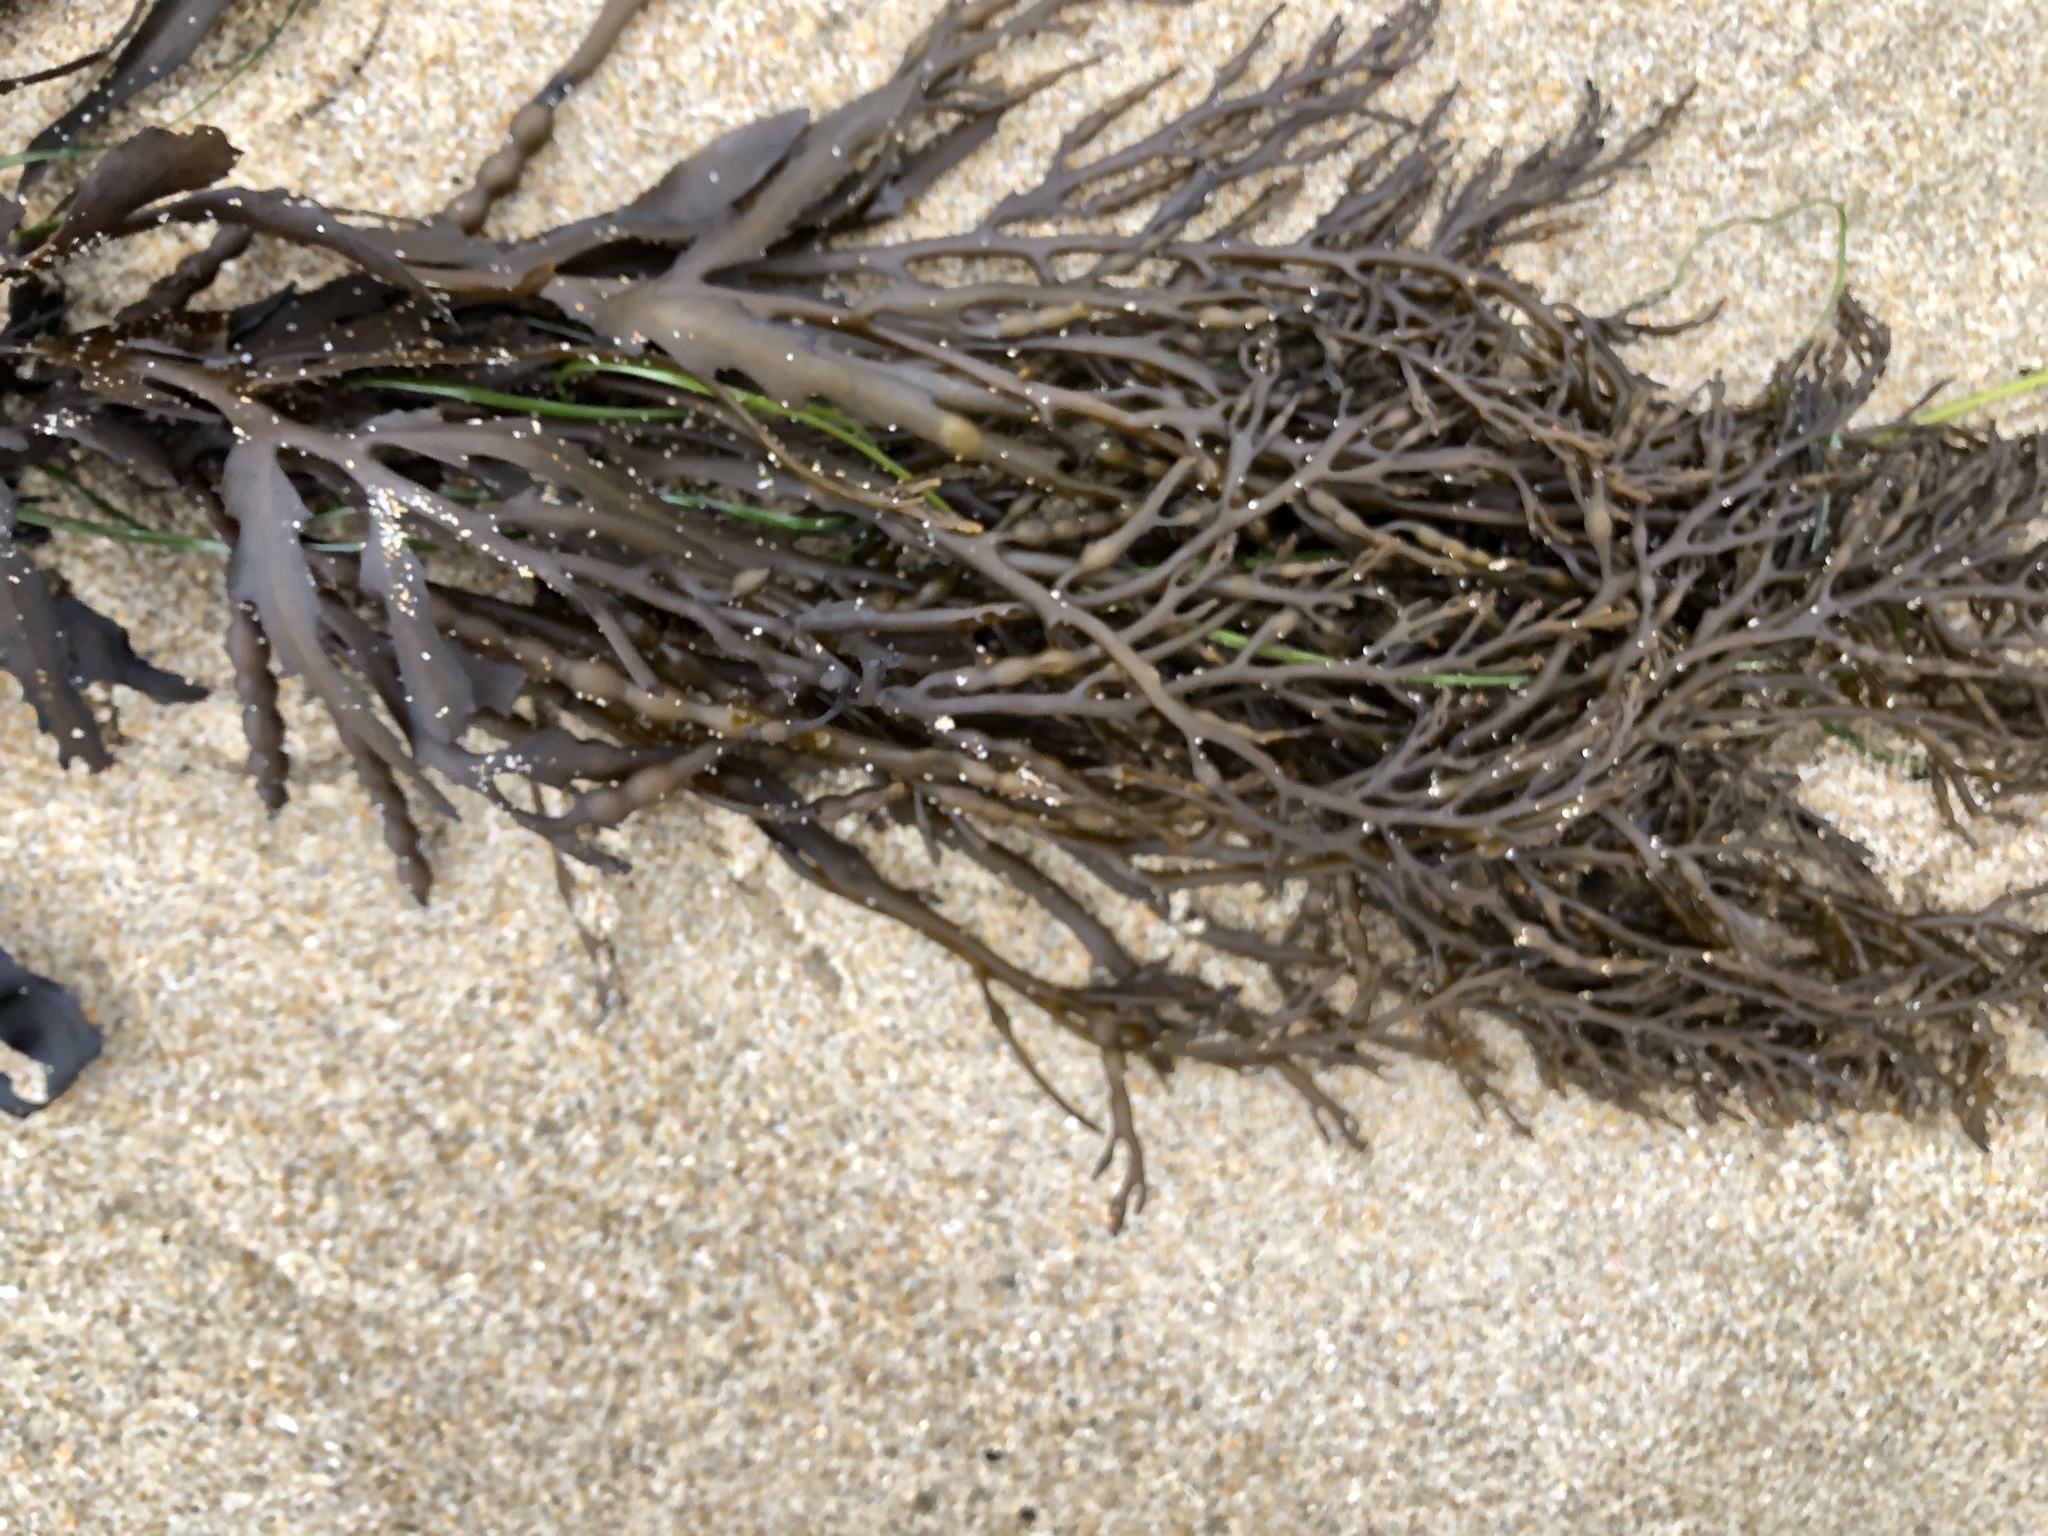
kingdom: Chromista
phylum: Ochrophyta
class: Phaeophyceae
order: Fucales
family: Sargassaceae
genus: Stephanocystis
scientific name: Stephanocystis
